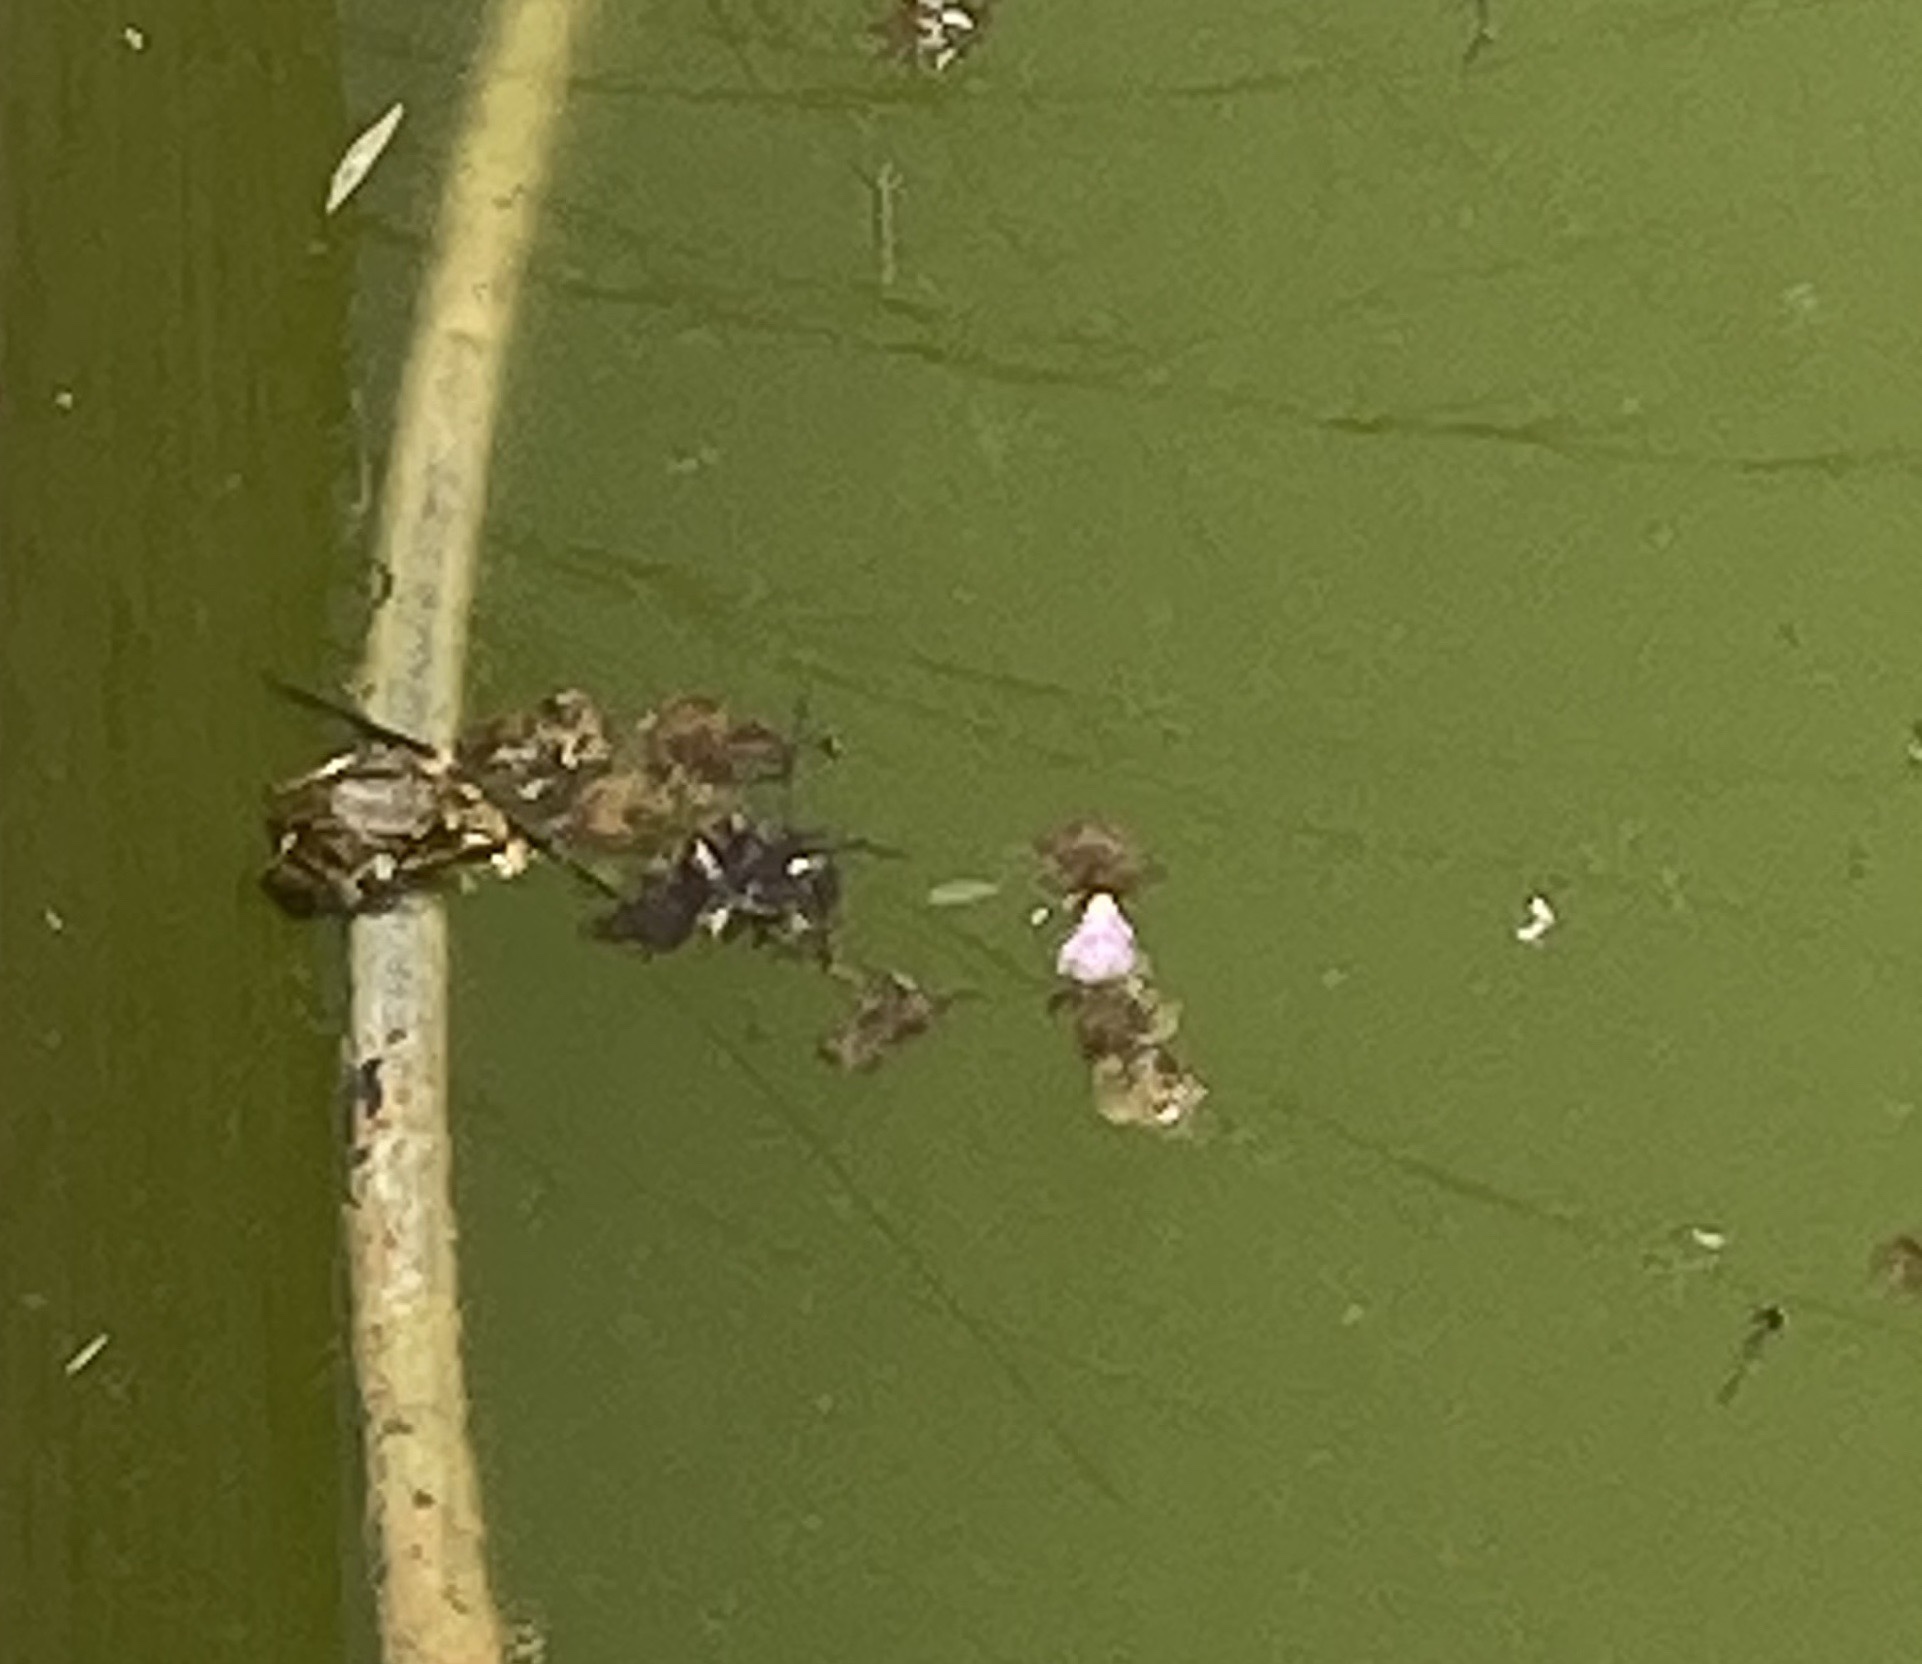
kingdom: Animalia
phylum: Chordata
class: Amphibia
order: Anura
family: Ranidae
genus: Pelophylax
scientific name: Pelophylax cretensis
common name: Cretan frog
